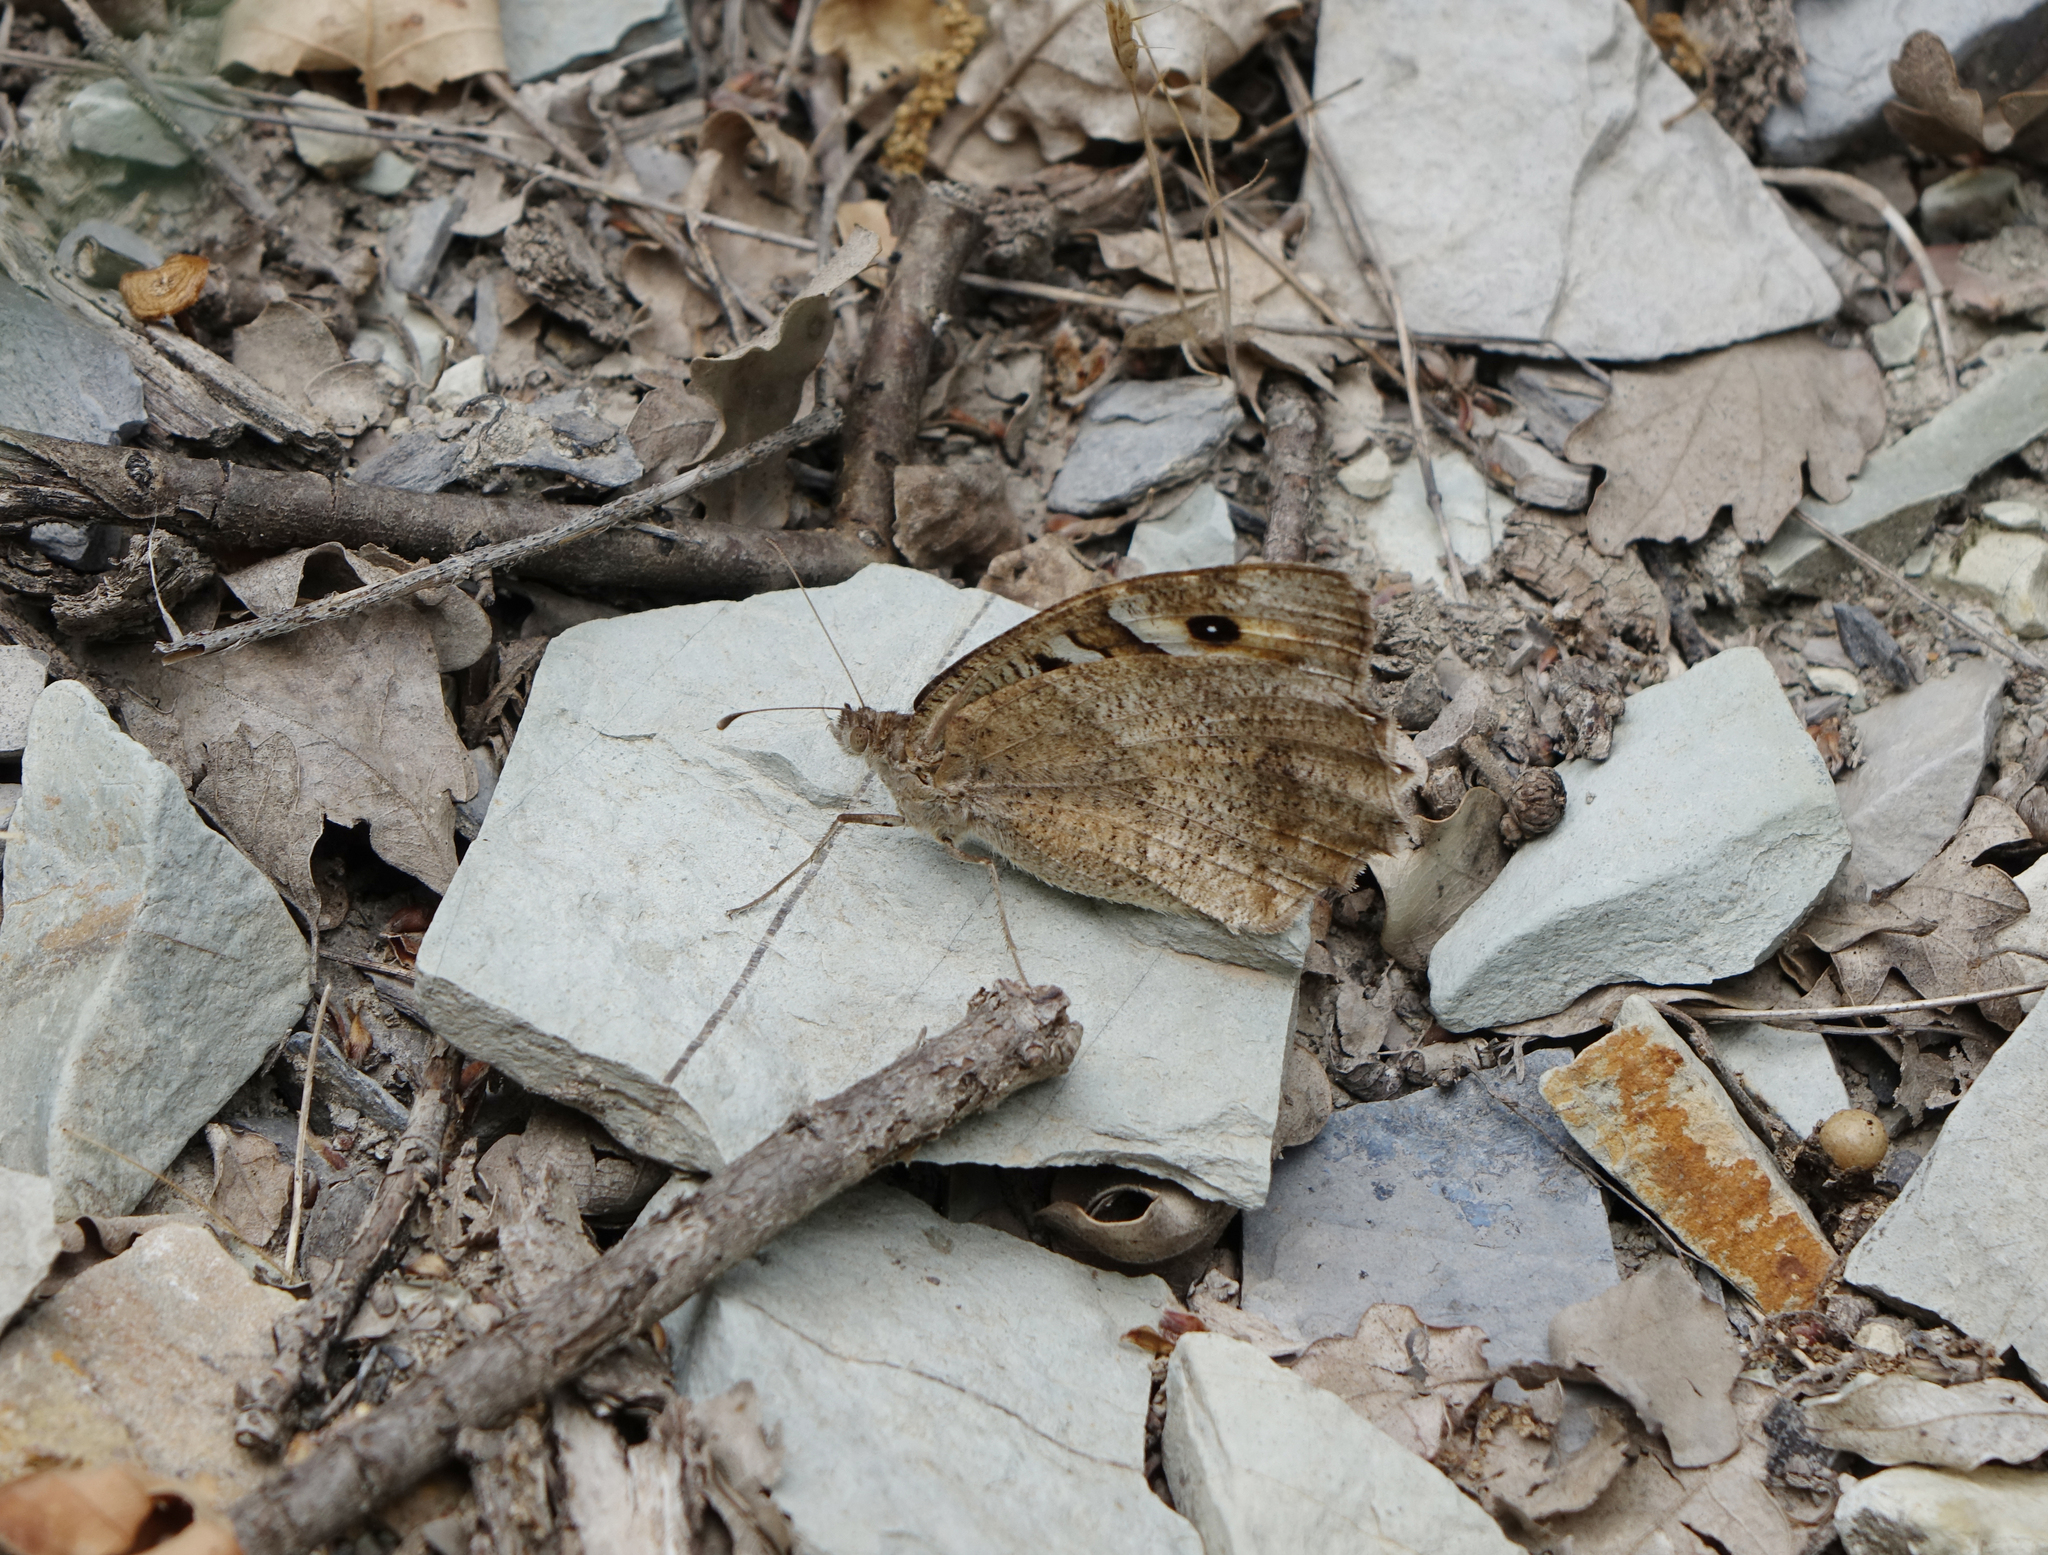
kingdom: Animalia
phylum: Arthropoda
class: Insecta
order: Lepidoptera
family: Nymphalidae
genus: Satyrus
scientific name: Satyrus briseis
